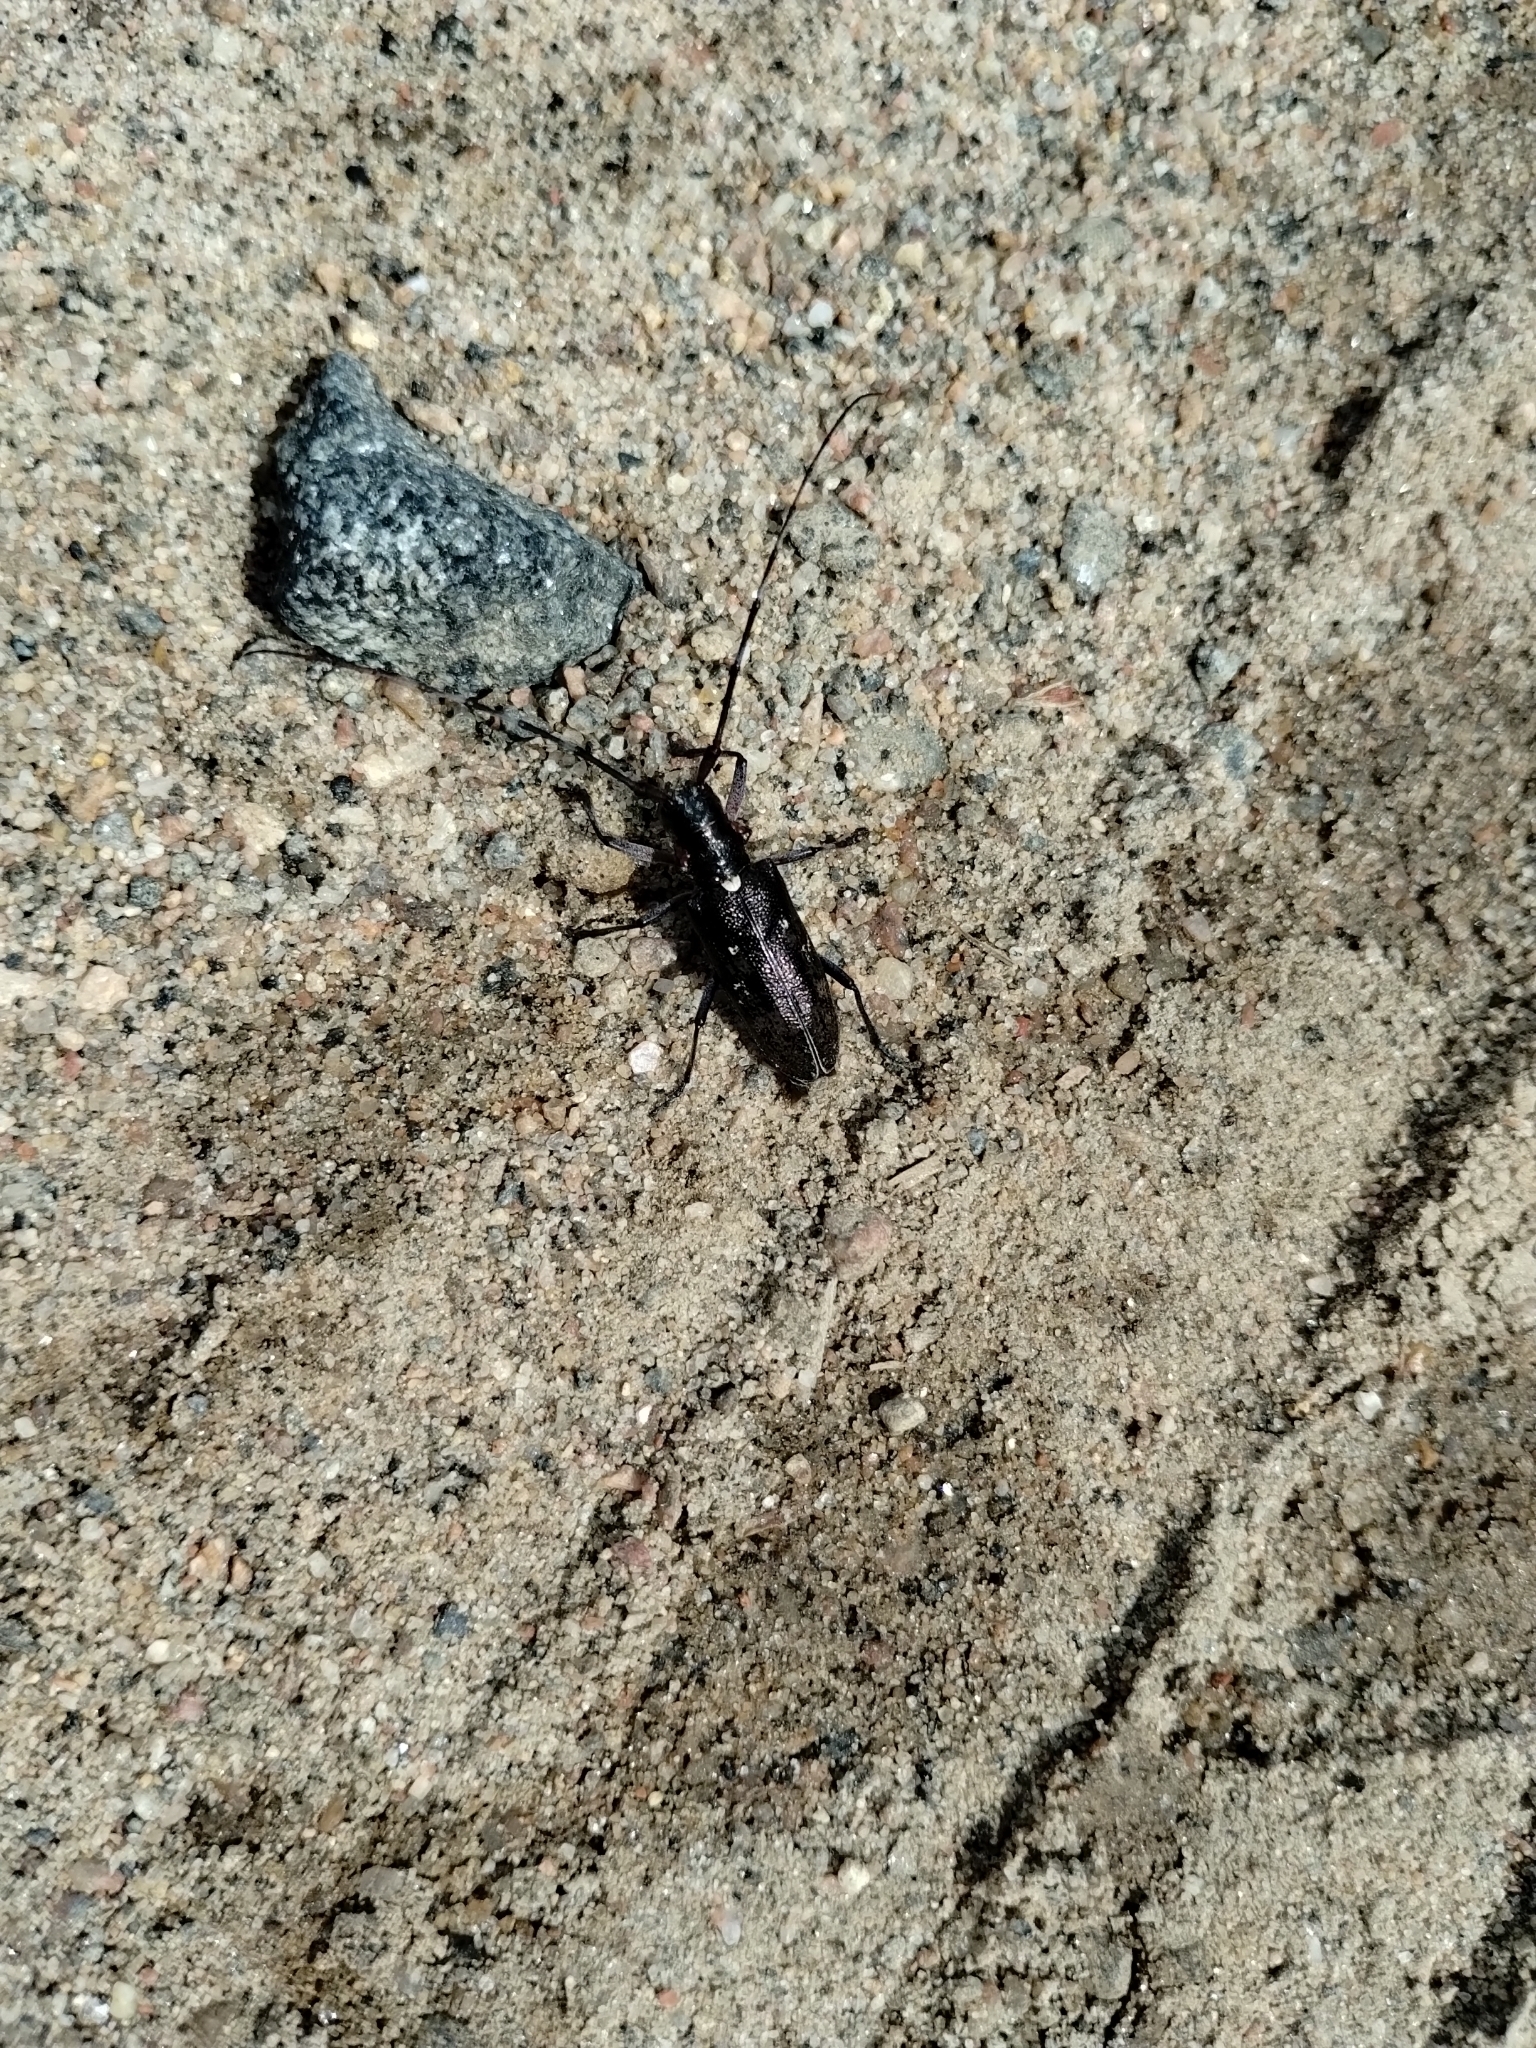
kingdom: Animalia
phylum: Arthropoda
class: Insecta
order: Coleoptera
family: Cerambycidae
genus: Monochamus
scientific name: Monochamus scutellatus
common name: White-spotted sawyer beetle
